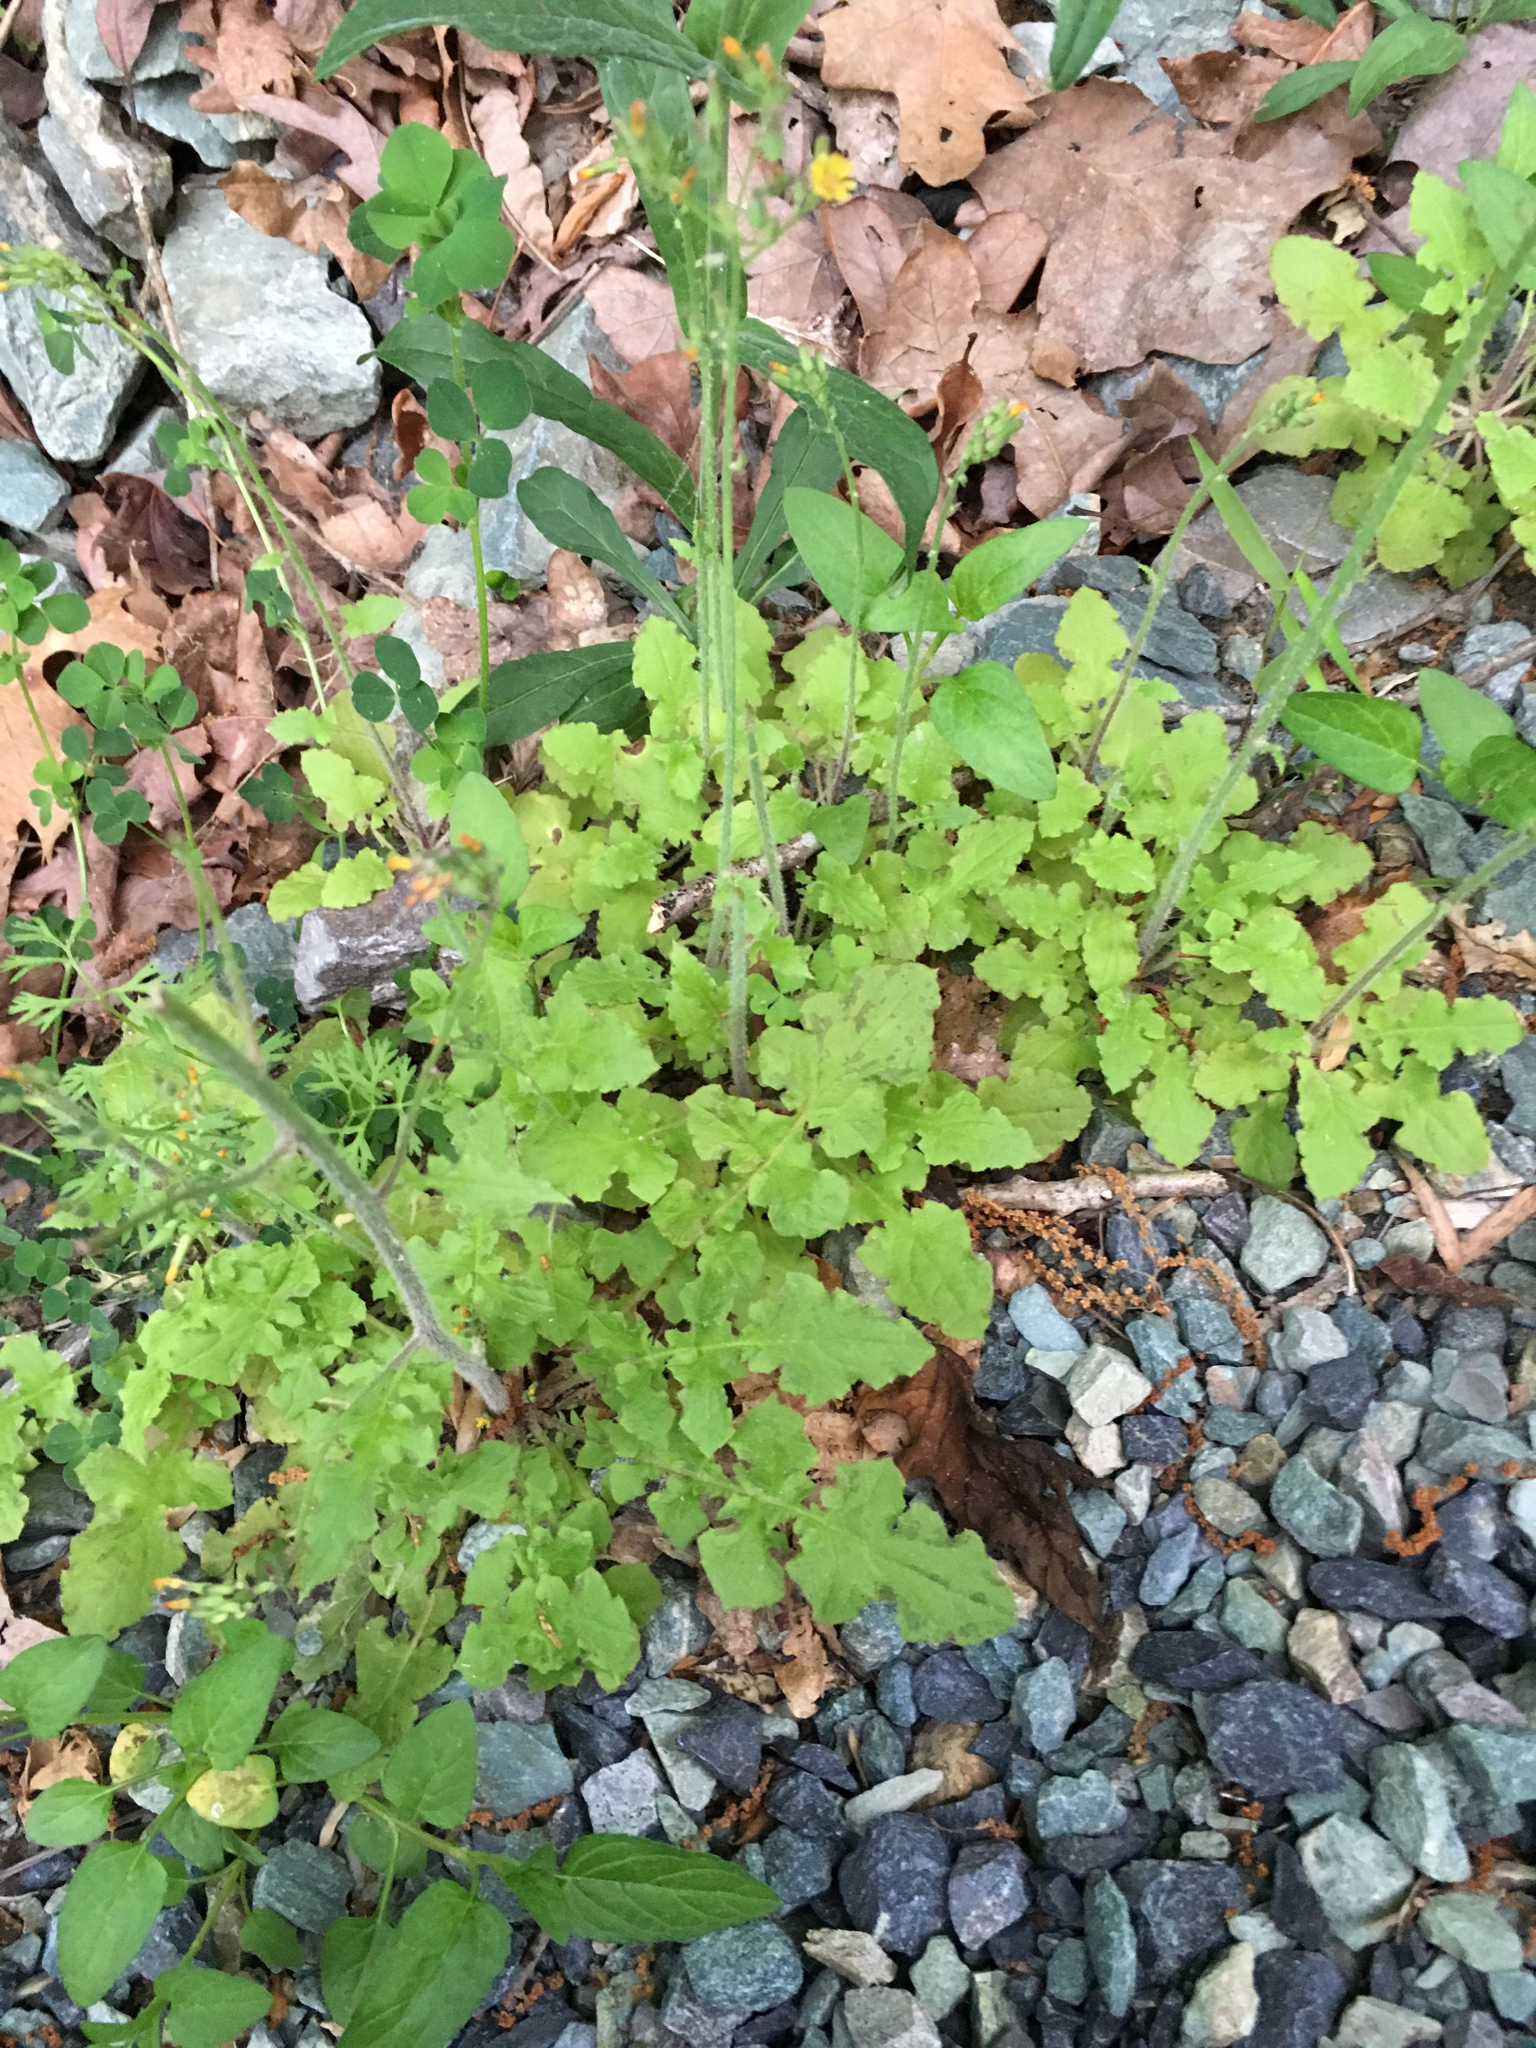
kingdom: Plantae
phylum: Tracheophyta
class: Magnoliopsida
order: Asterales
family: Asteraceae
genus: Youngia
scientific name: Youngia japonica
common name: Oriental false hawksbeard
